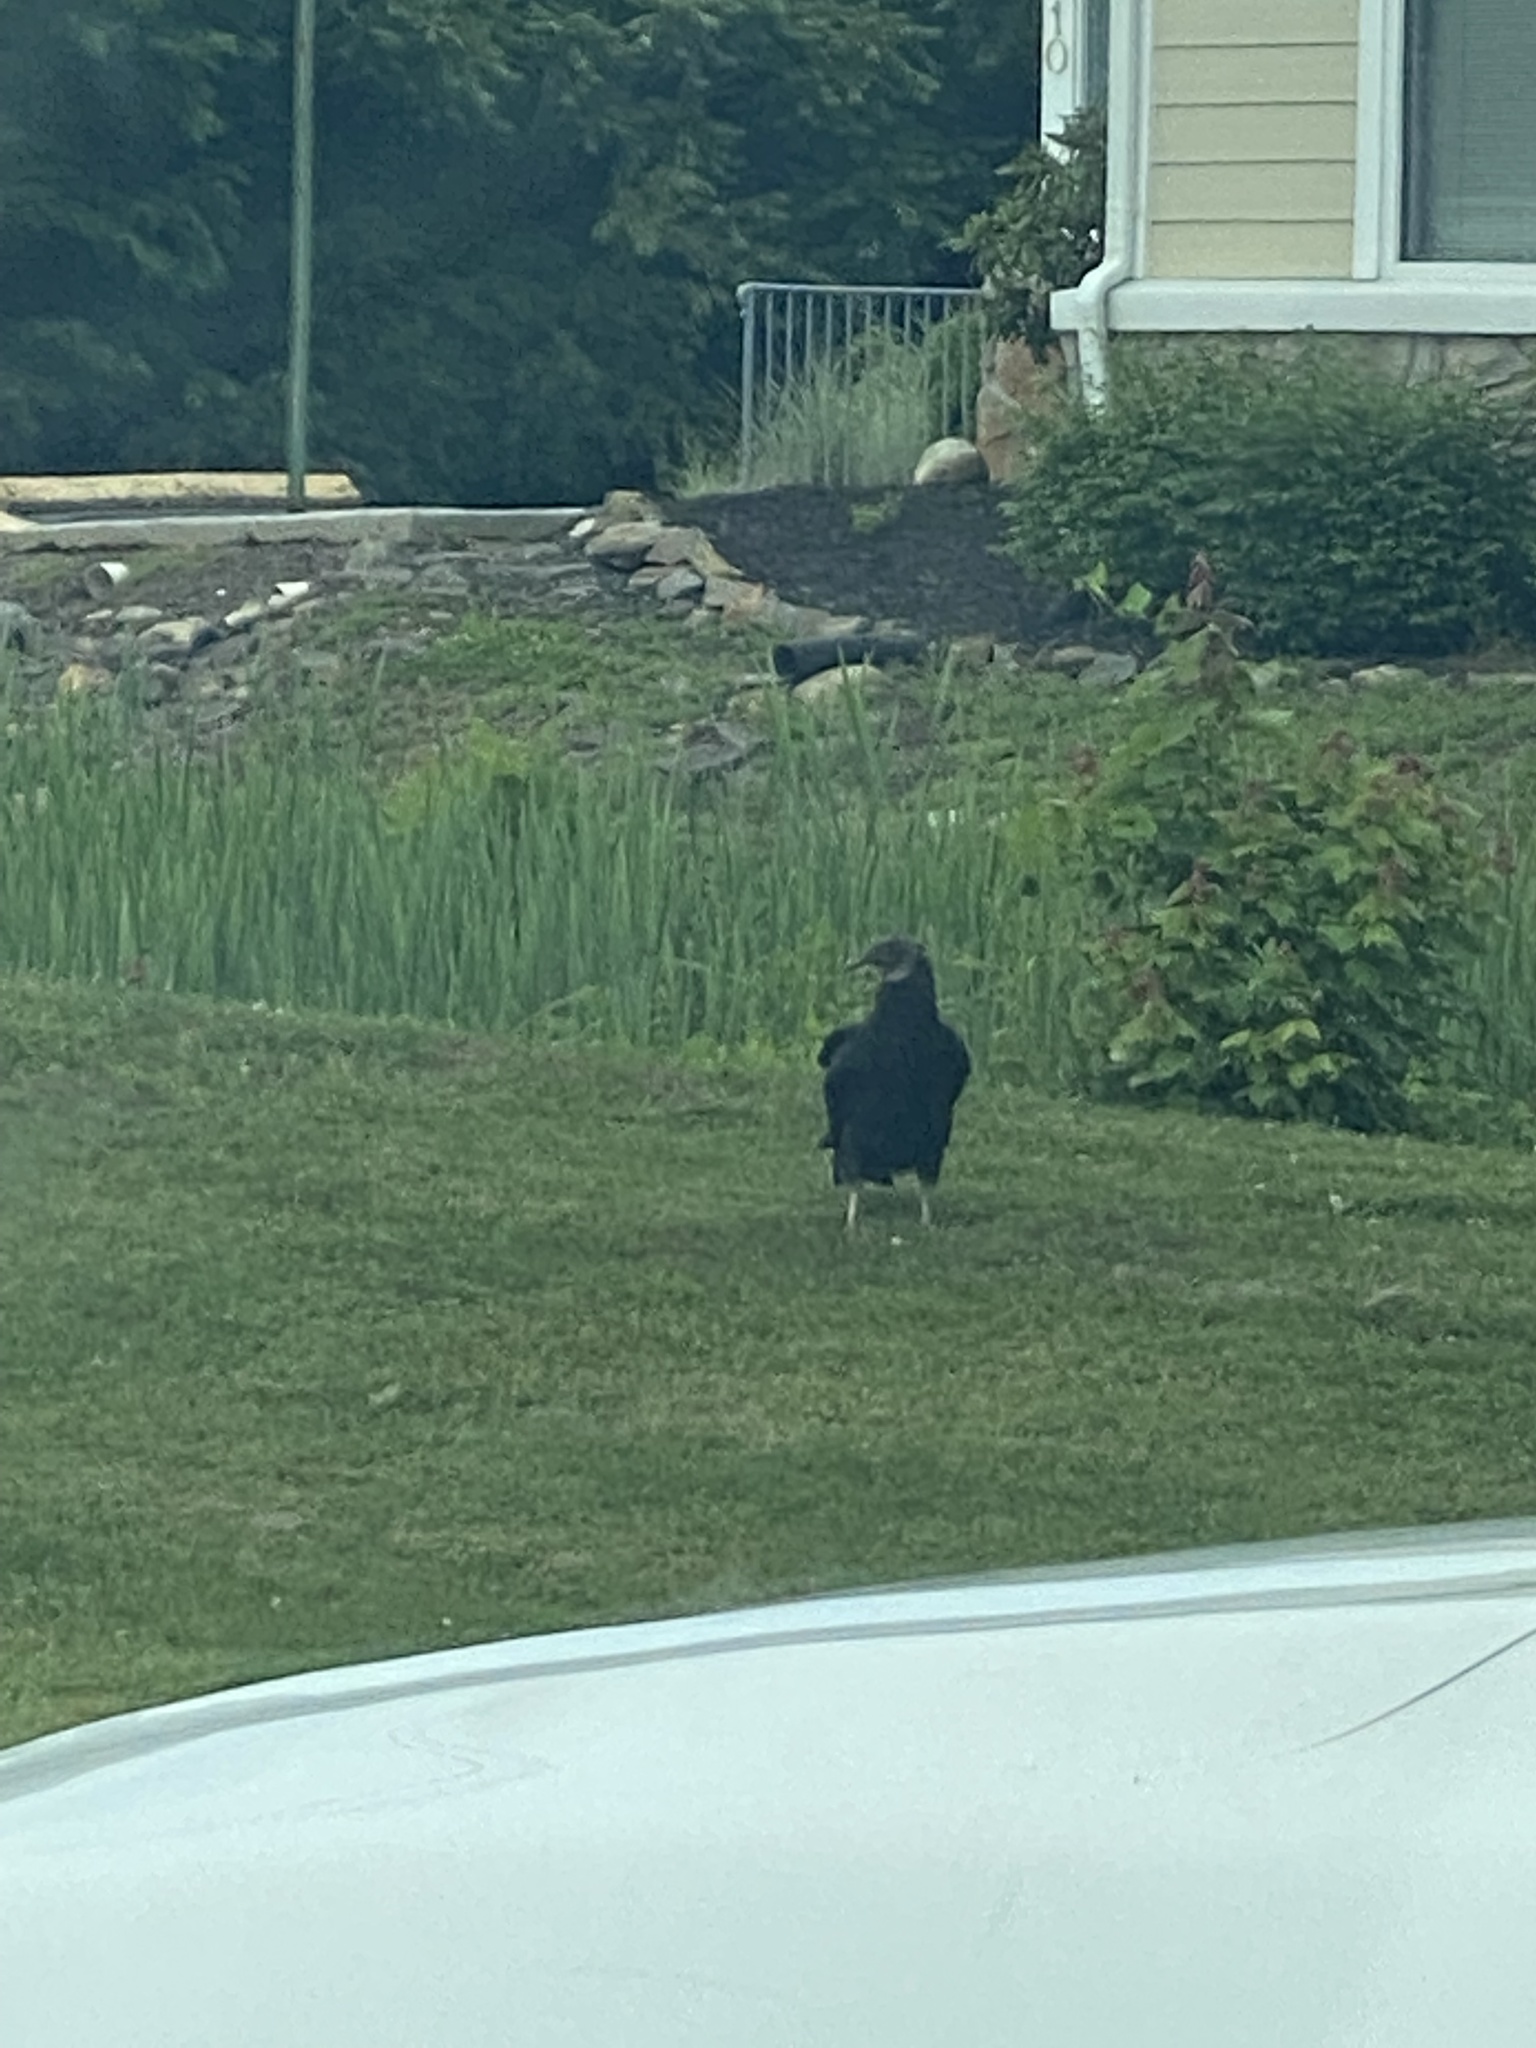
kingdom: Animalia
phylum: Chordata
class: Aves
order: Accipitriformes
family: Cathartidae
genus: Coragyps
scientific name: Coragyps atratus
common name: Black vulture
